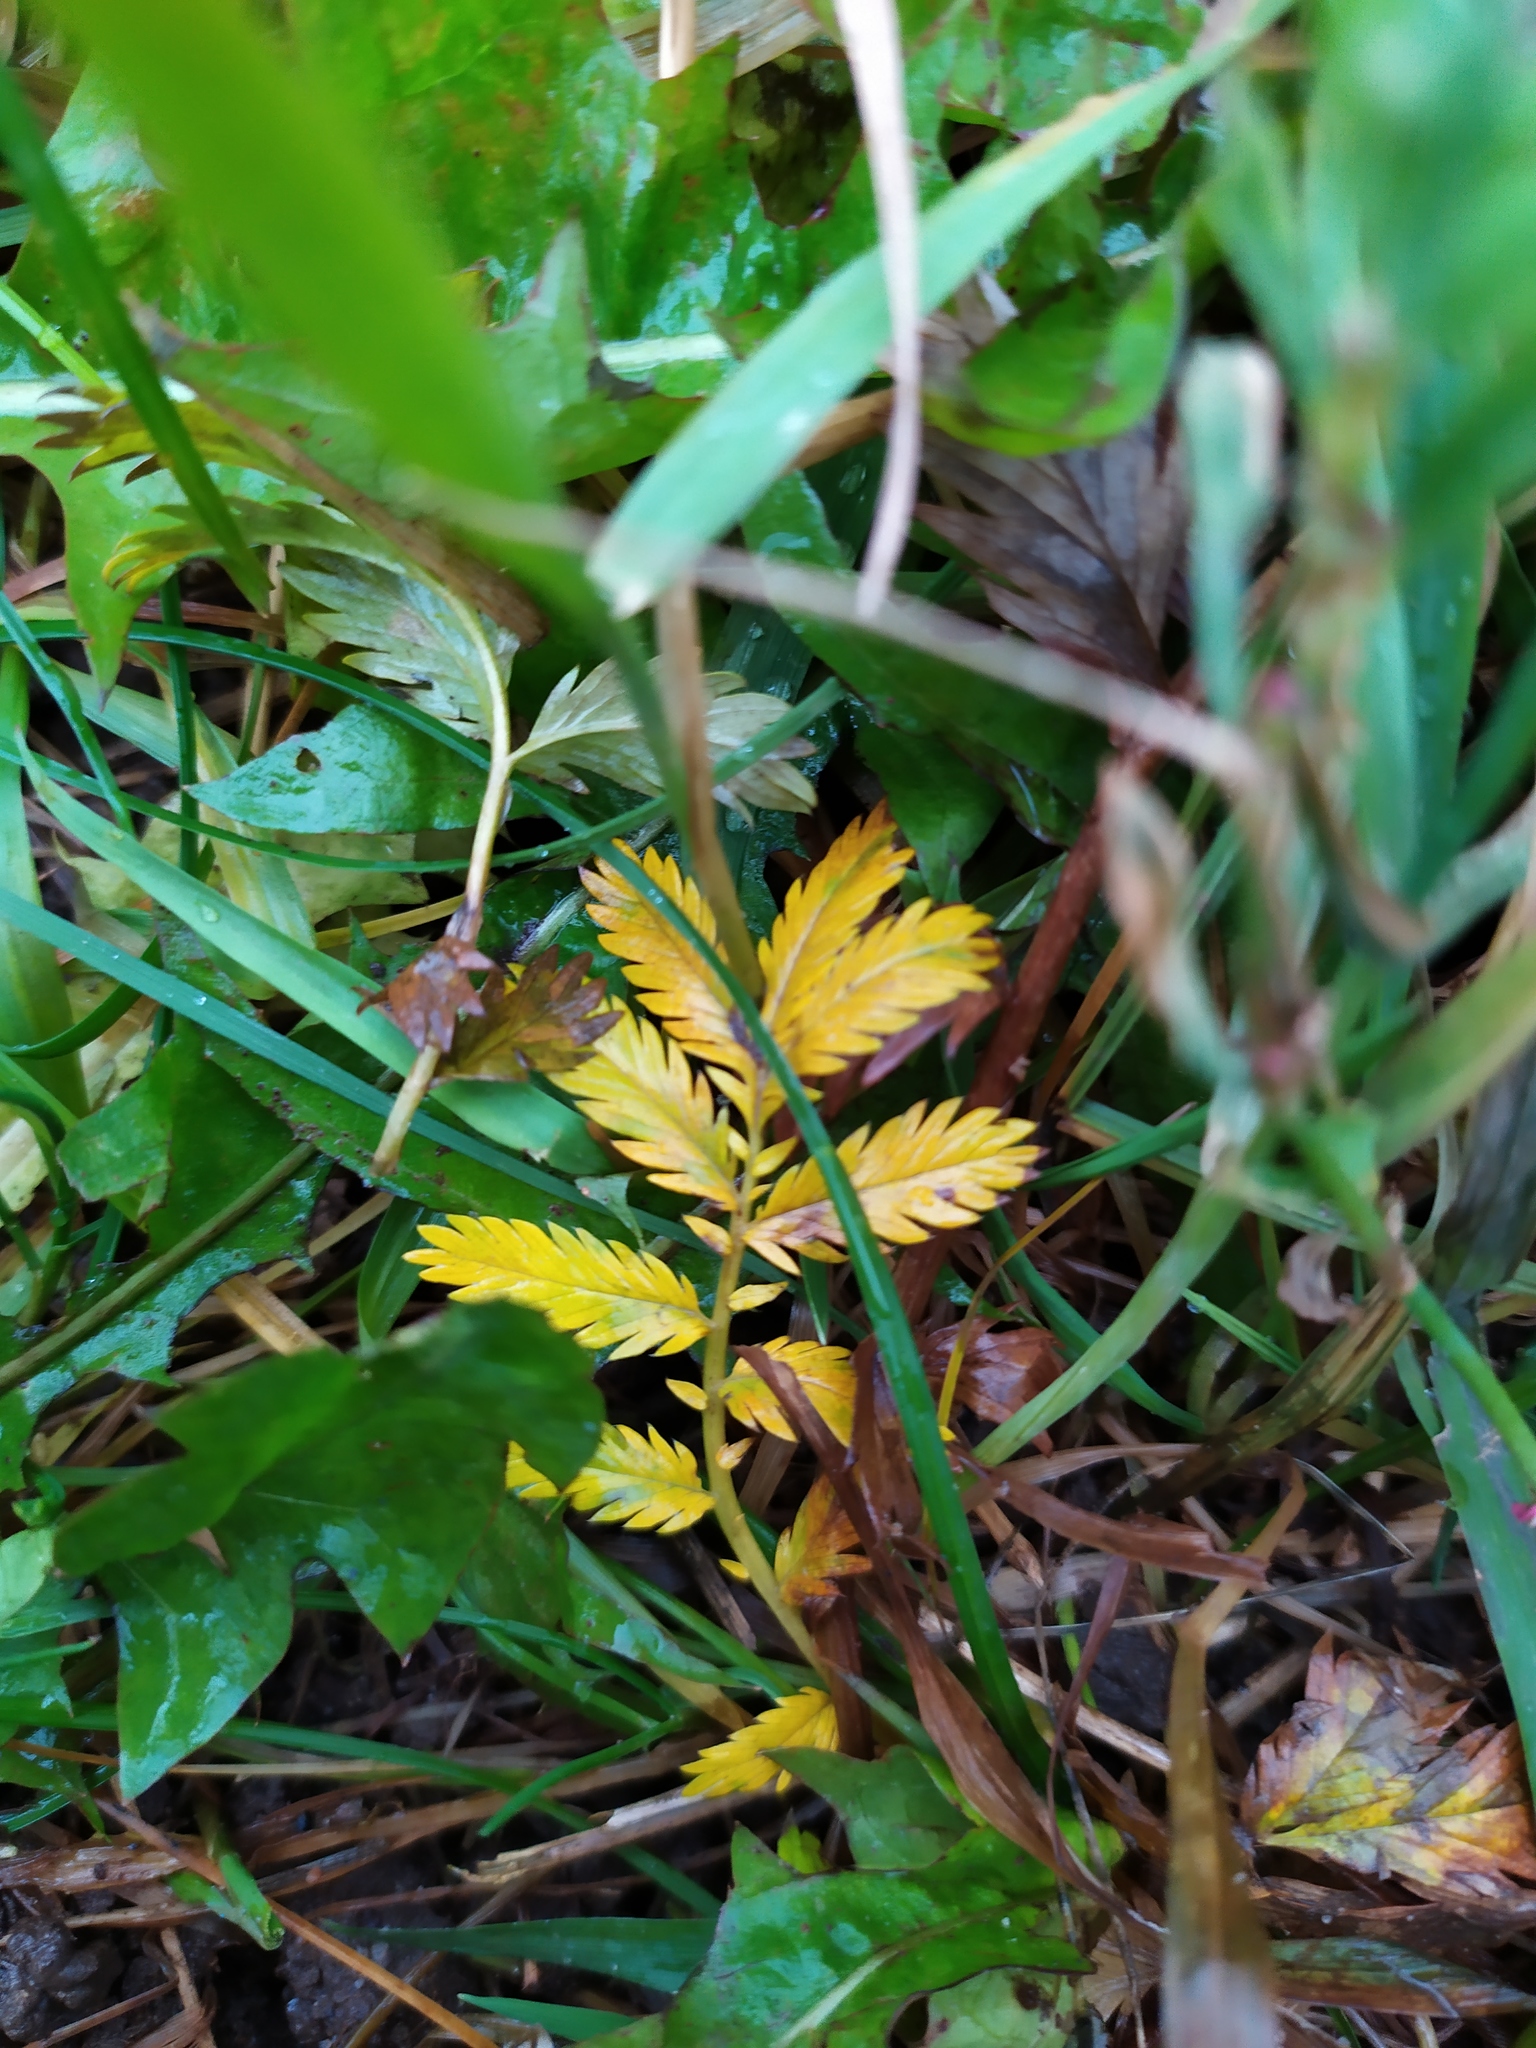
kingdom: Plantae
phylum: Tracheophyta
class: Magnoliopsida
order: Rosales
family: Rosaceae
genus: Argentina
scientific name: Argentina anserina
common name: Common silverweed
